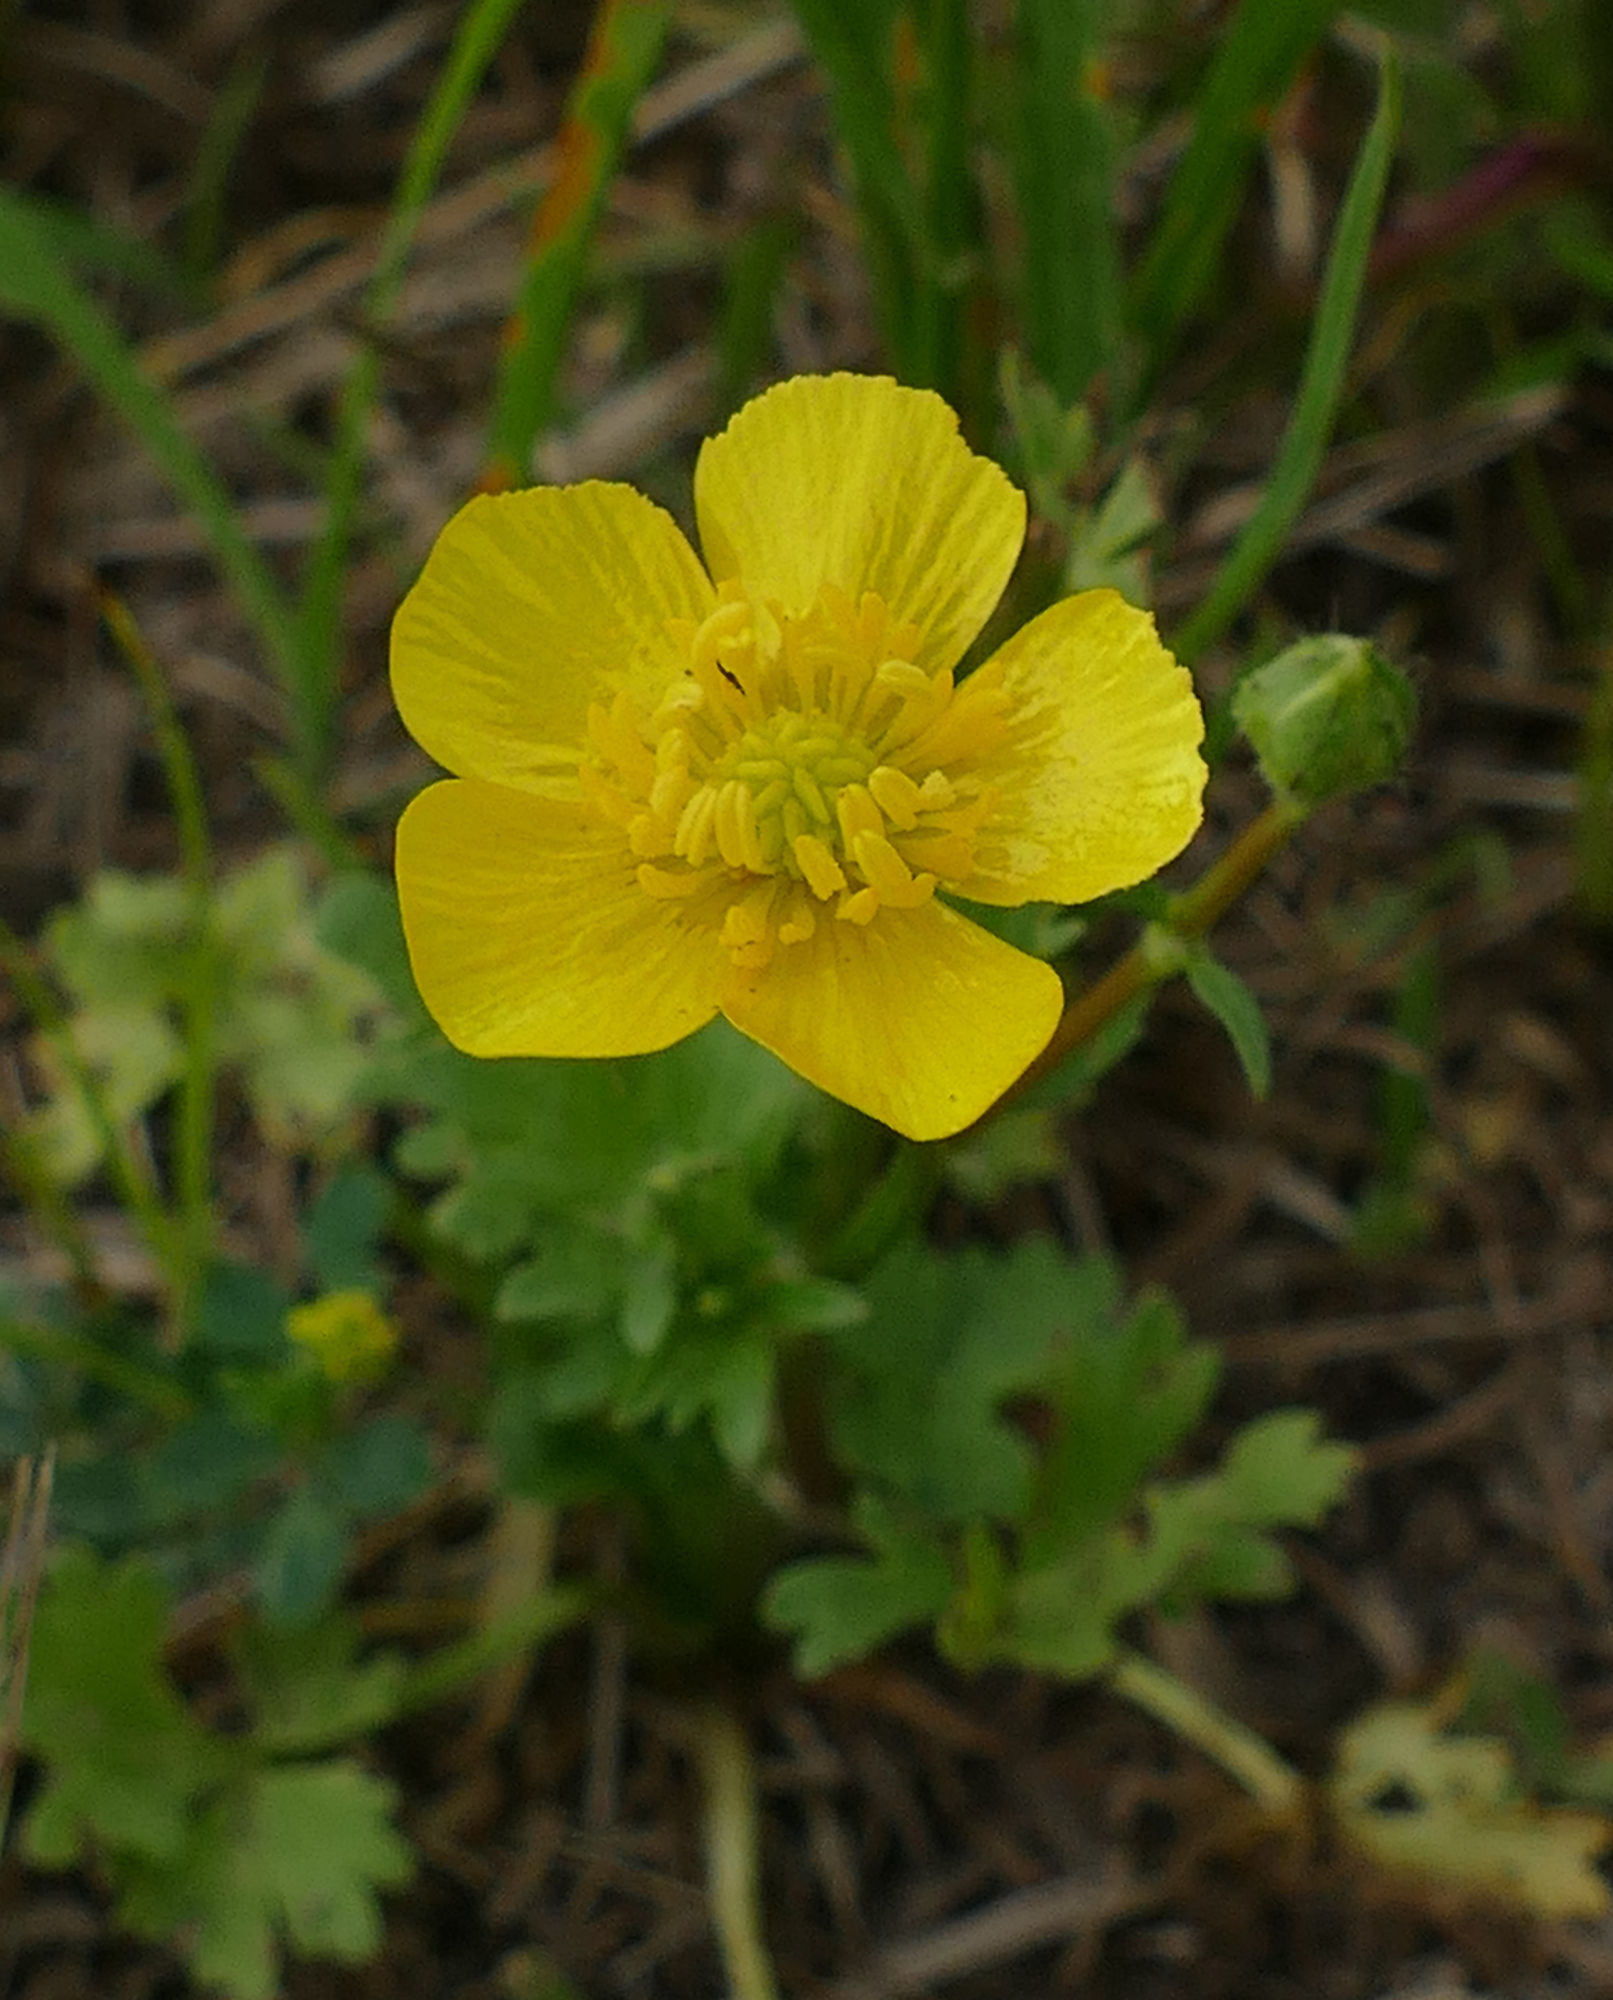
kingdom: Plantae
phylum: Tracheophyta
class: Magnoliopsida
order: Ranunculales
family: Ranunculaceae
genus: Ranunculus
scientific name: Ranunculus sardous
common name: Hairy buttercup
